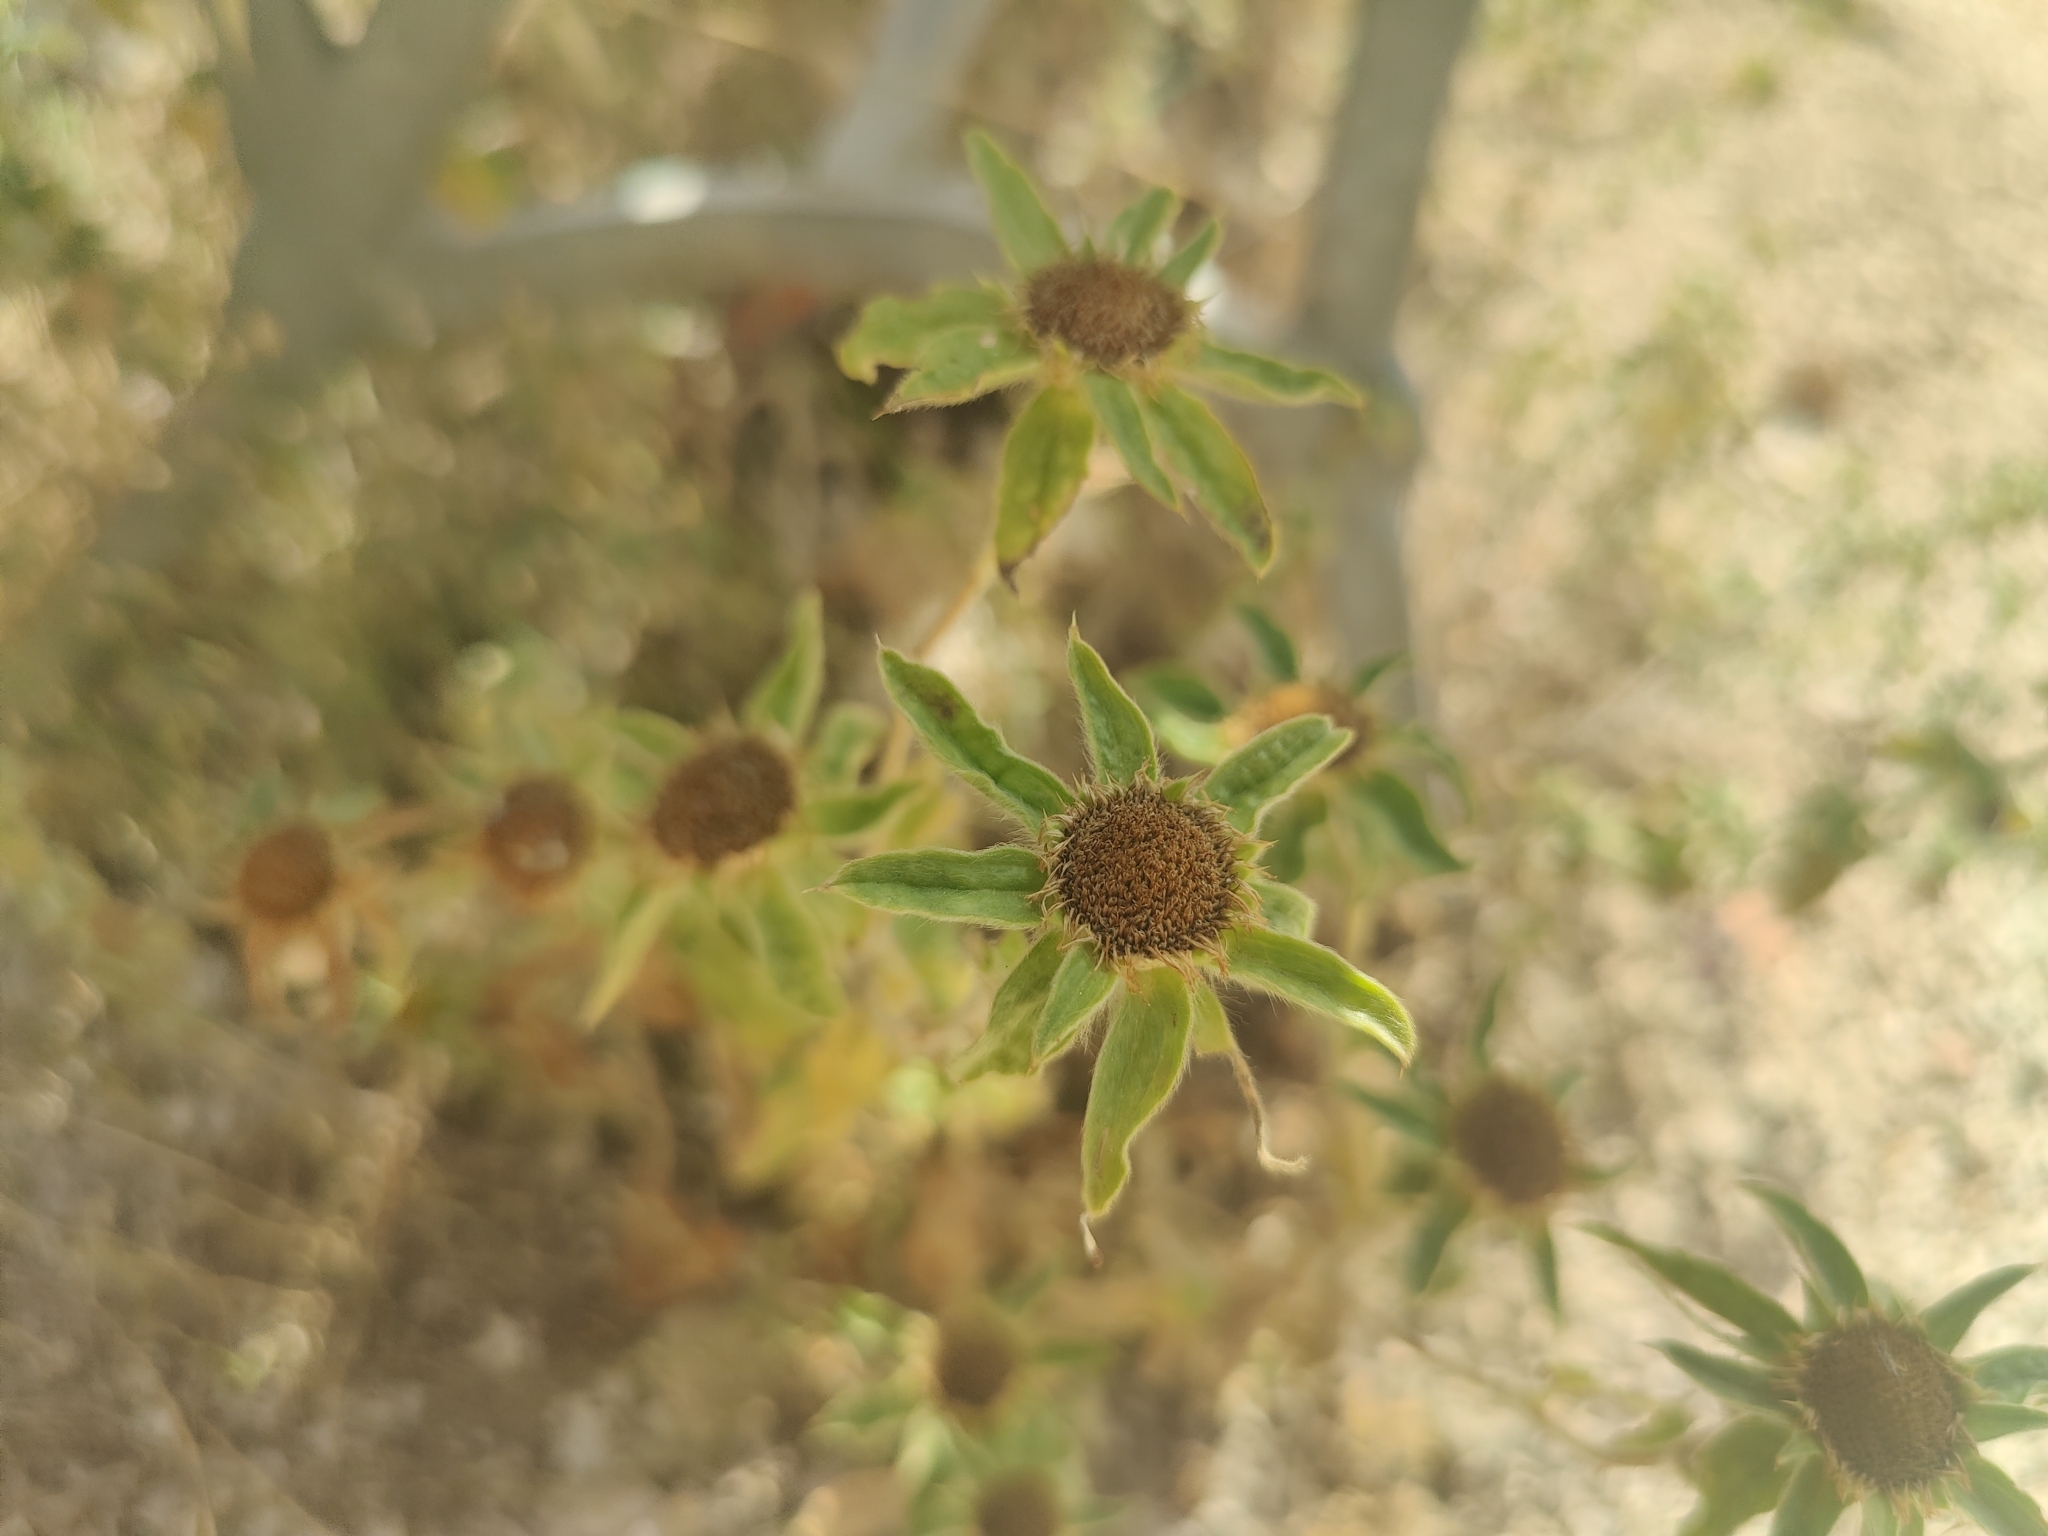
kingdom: Plantae
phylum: Tracheophyta
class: Magnoliopsida
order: Asterales
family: Asteraceae
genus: Pallenis
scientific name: Pallenis spinosa
